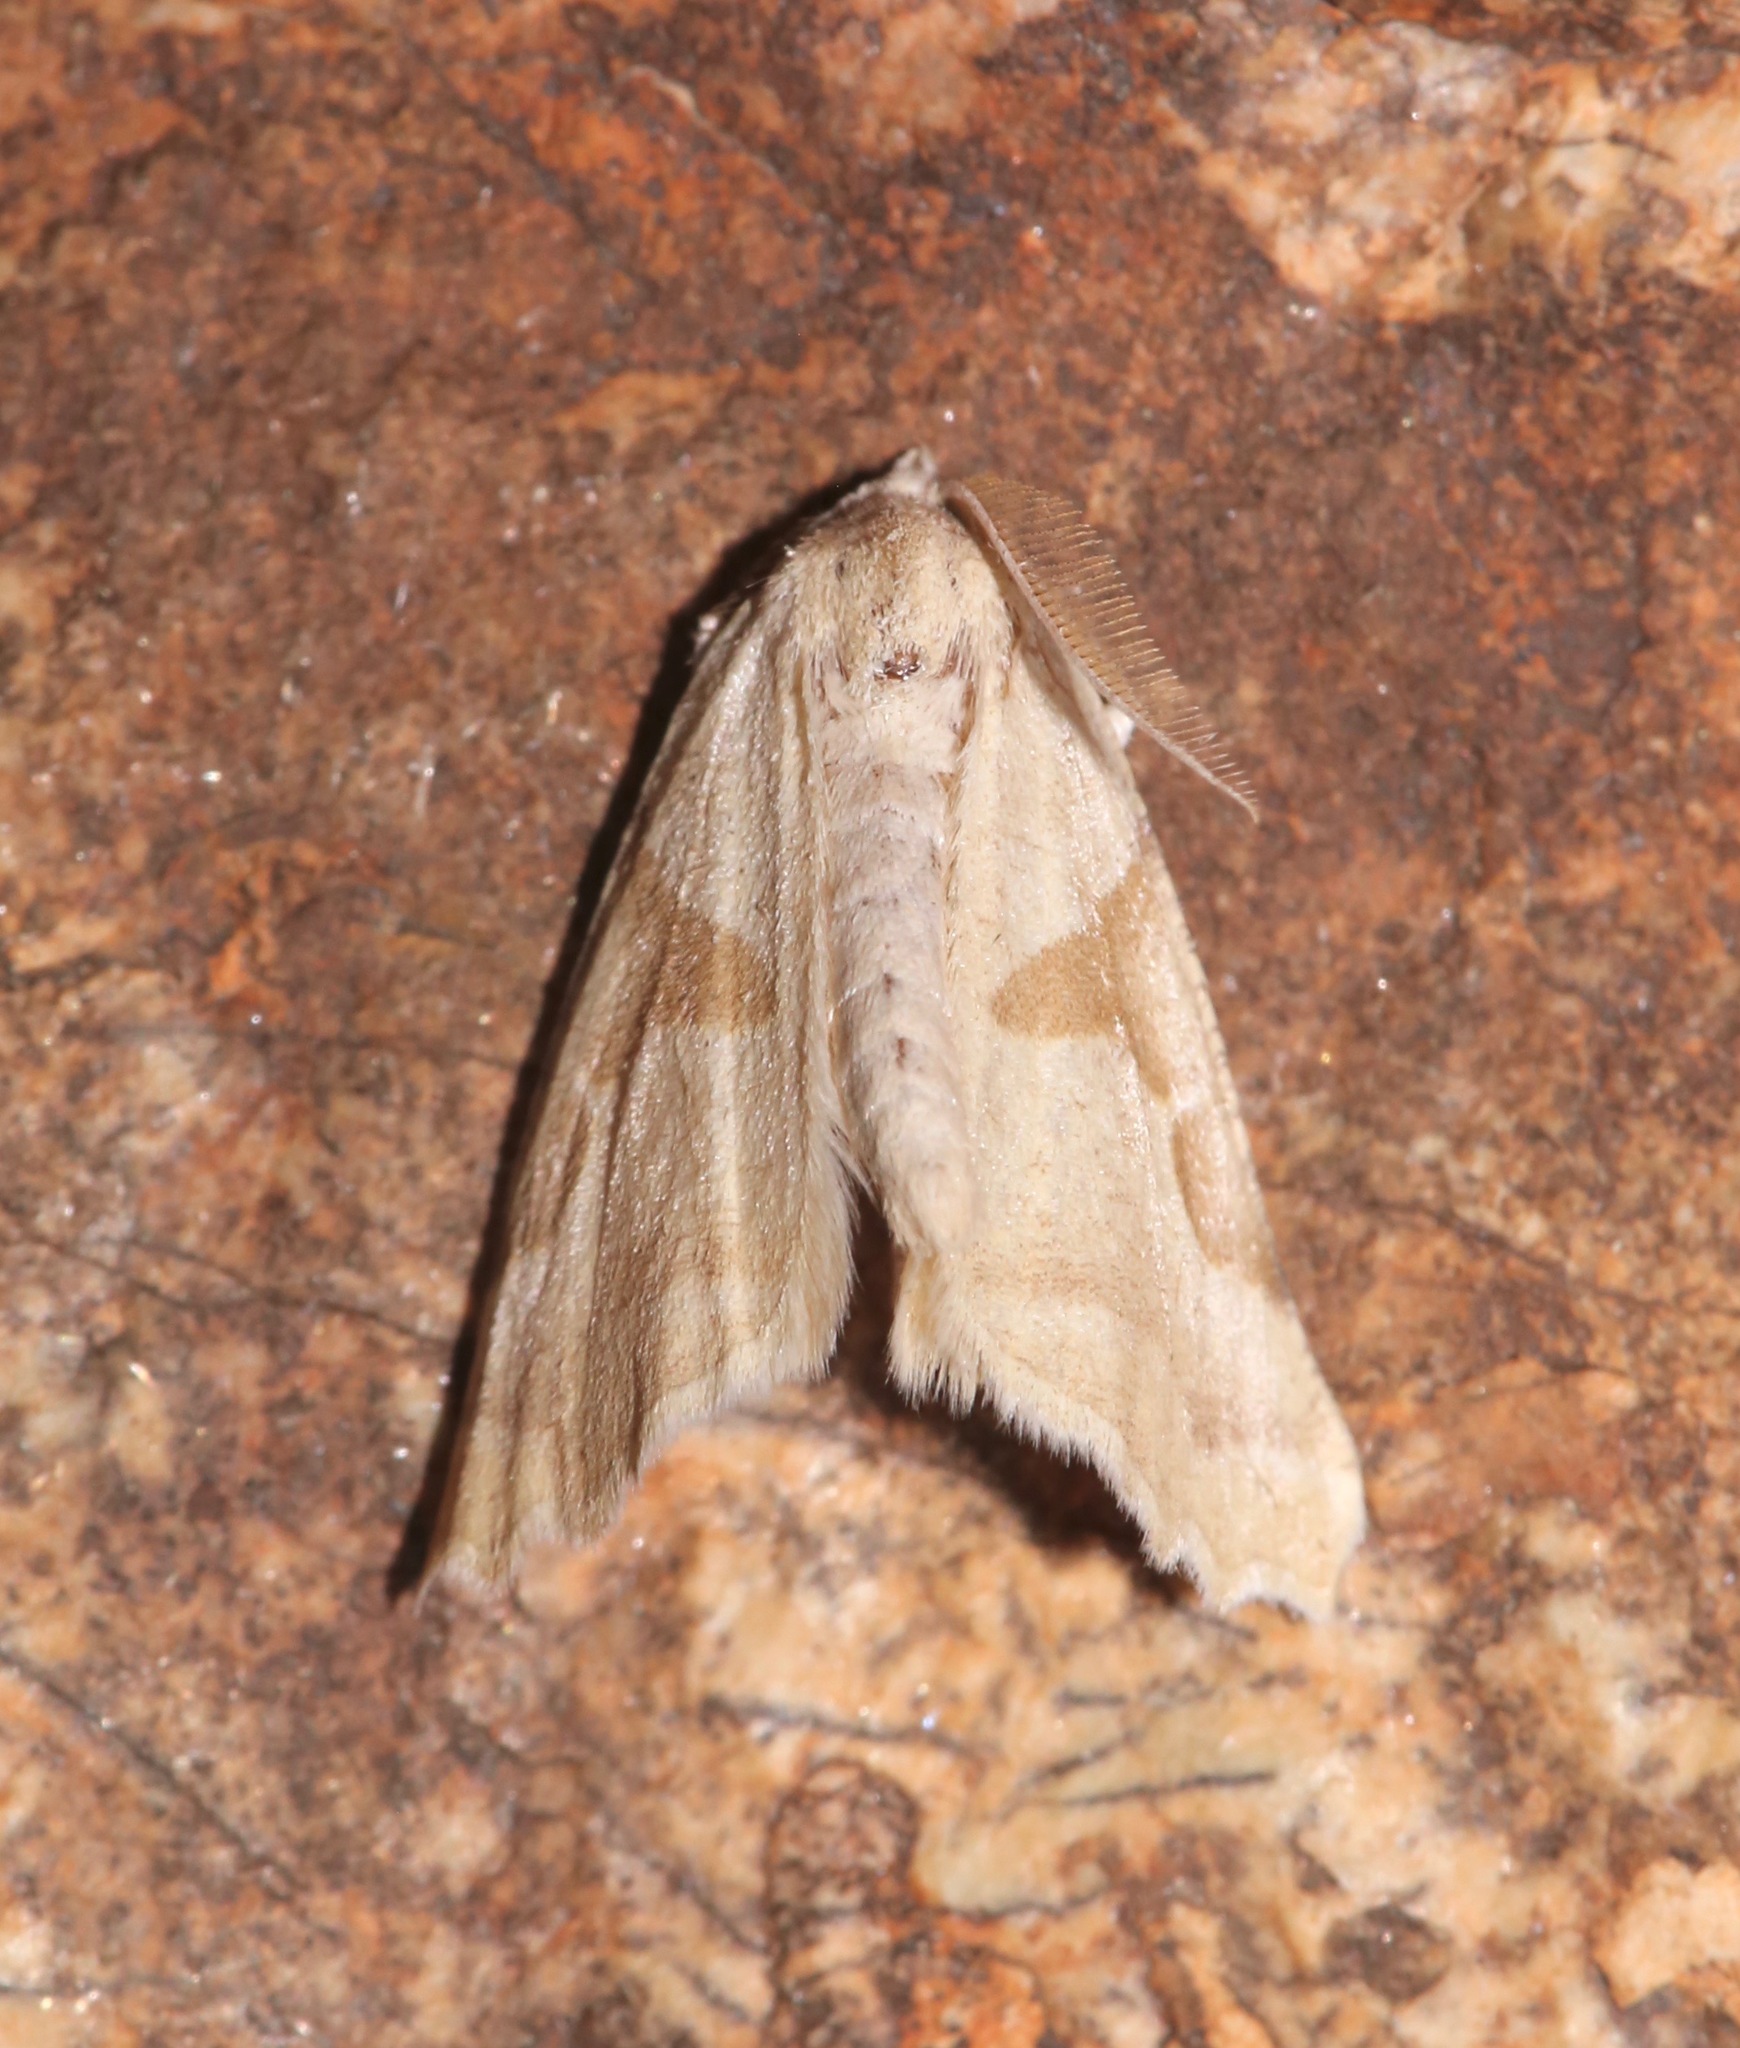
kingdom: Animalia
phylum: Arthropoda
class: Insecta
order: Lepidoptera
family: Geometridae
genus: Plataea
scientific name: Plataea calcaria
